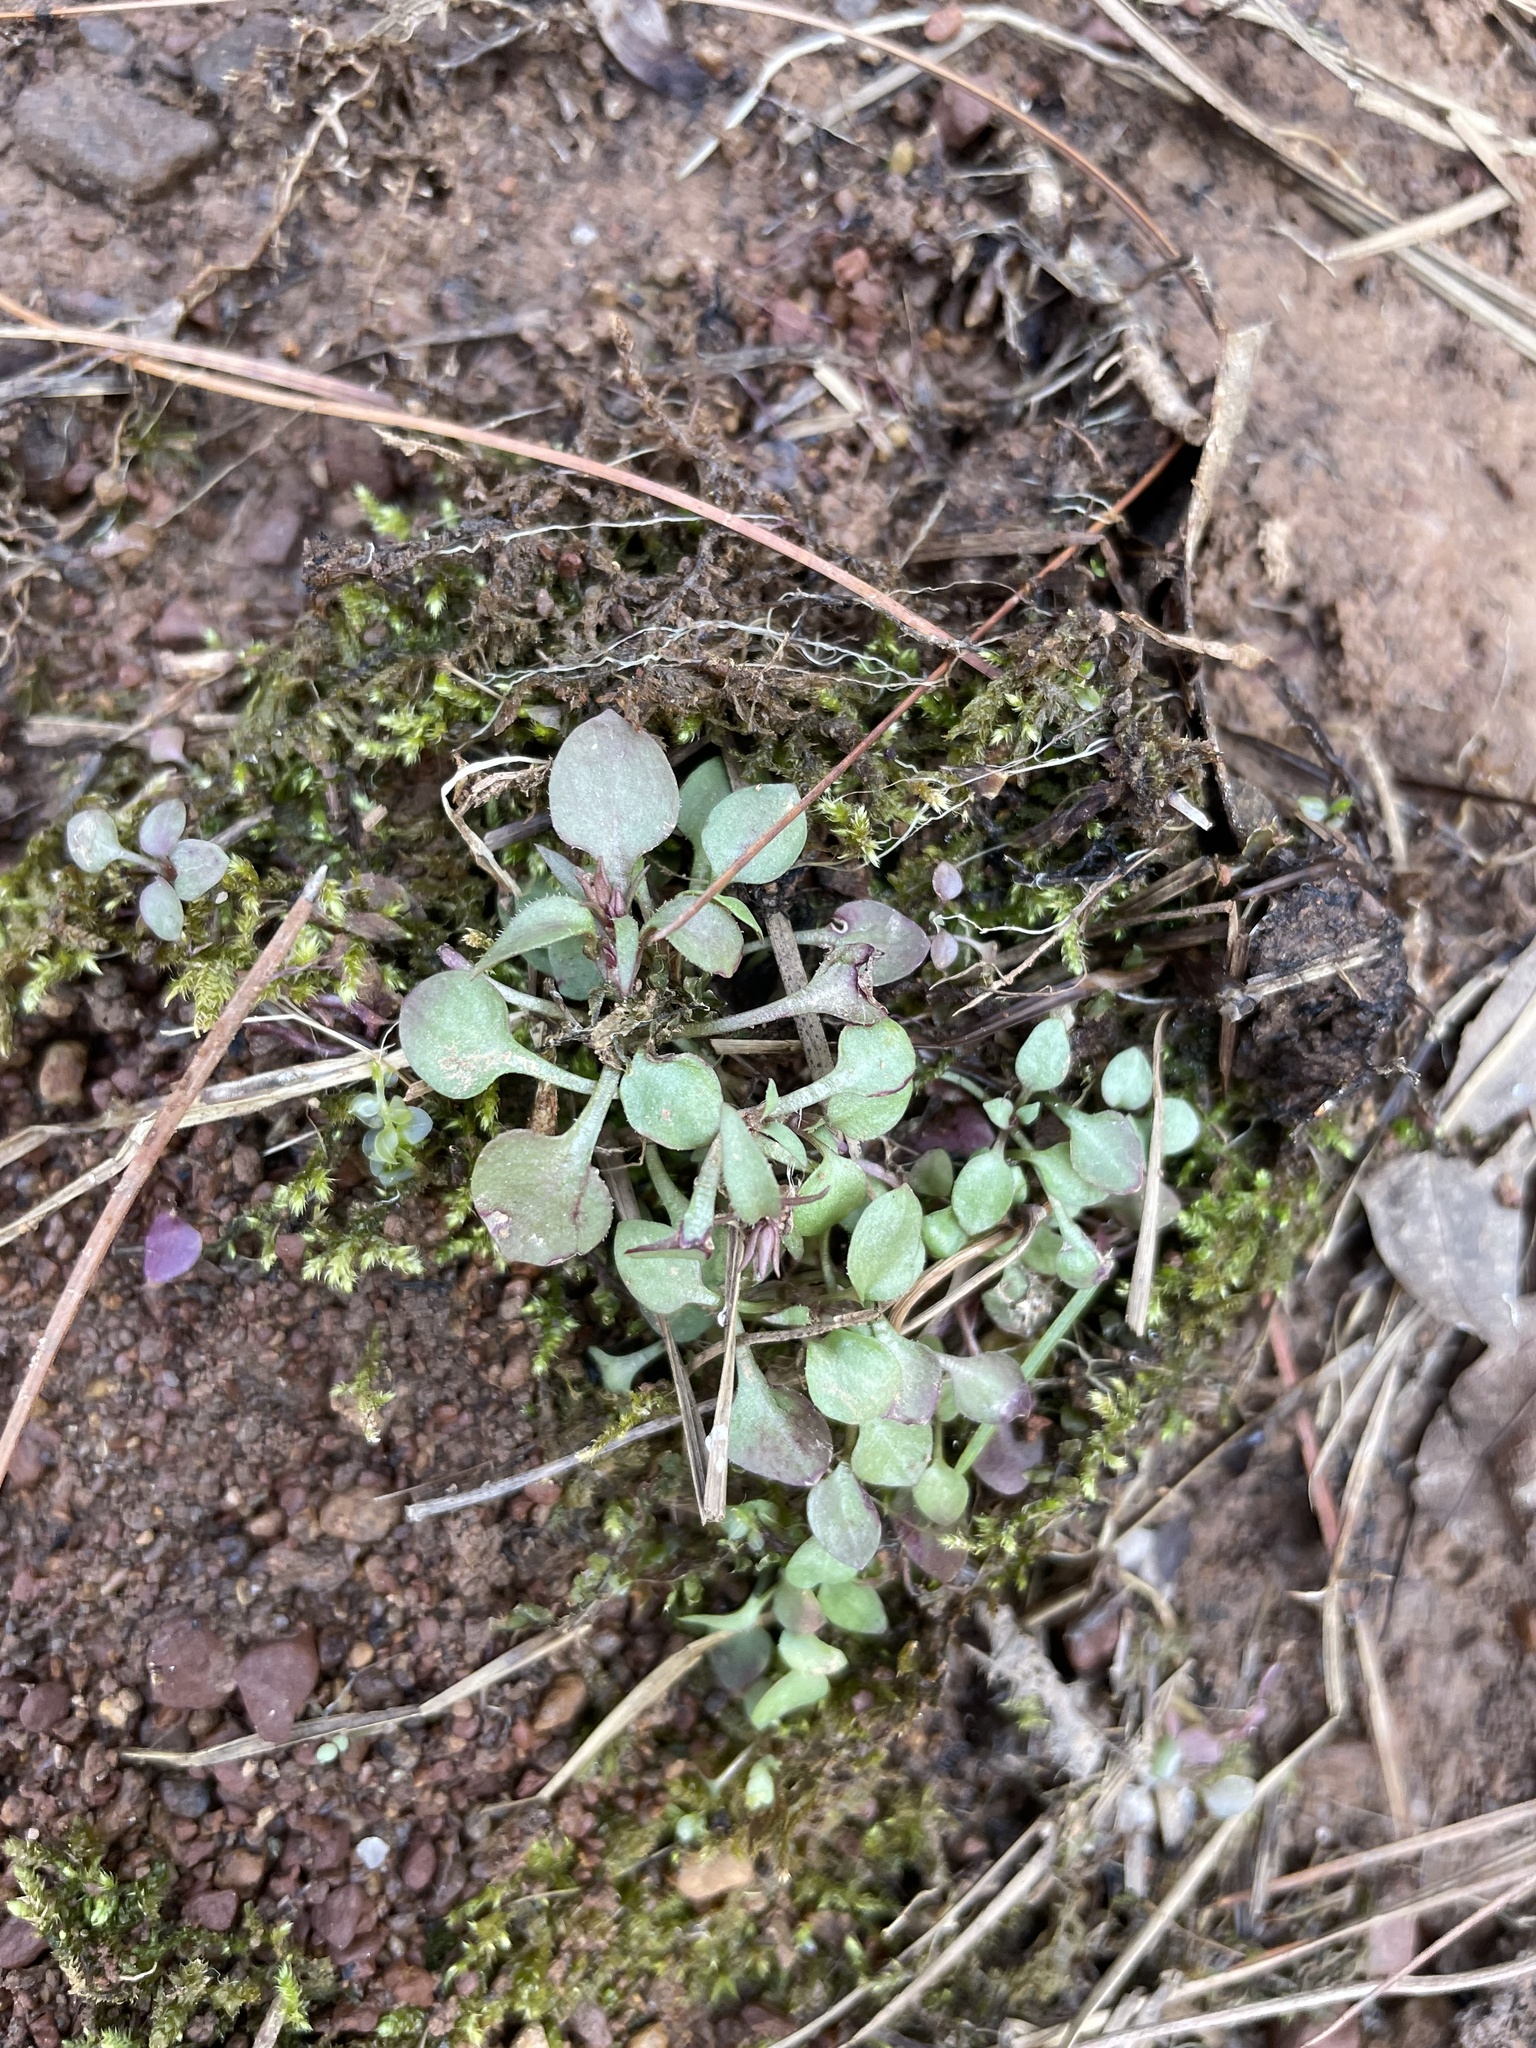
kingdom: Plantae
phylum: Tracheophyta
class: Magnoliopsida
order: Gentianales
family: Rubiaceae
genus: Houstonia
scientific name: Houstonia caerulea
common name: Bluets
